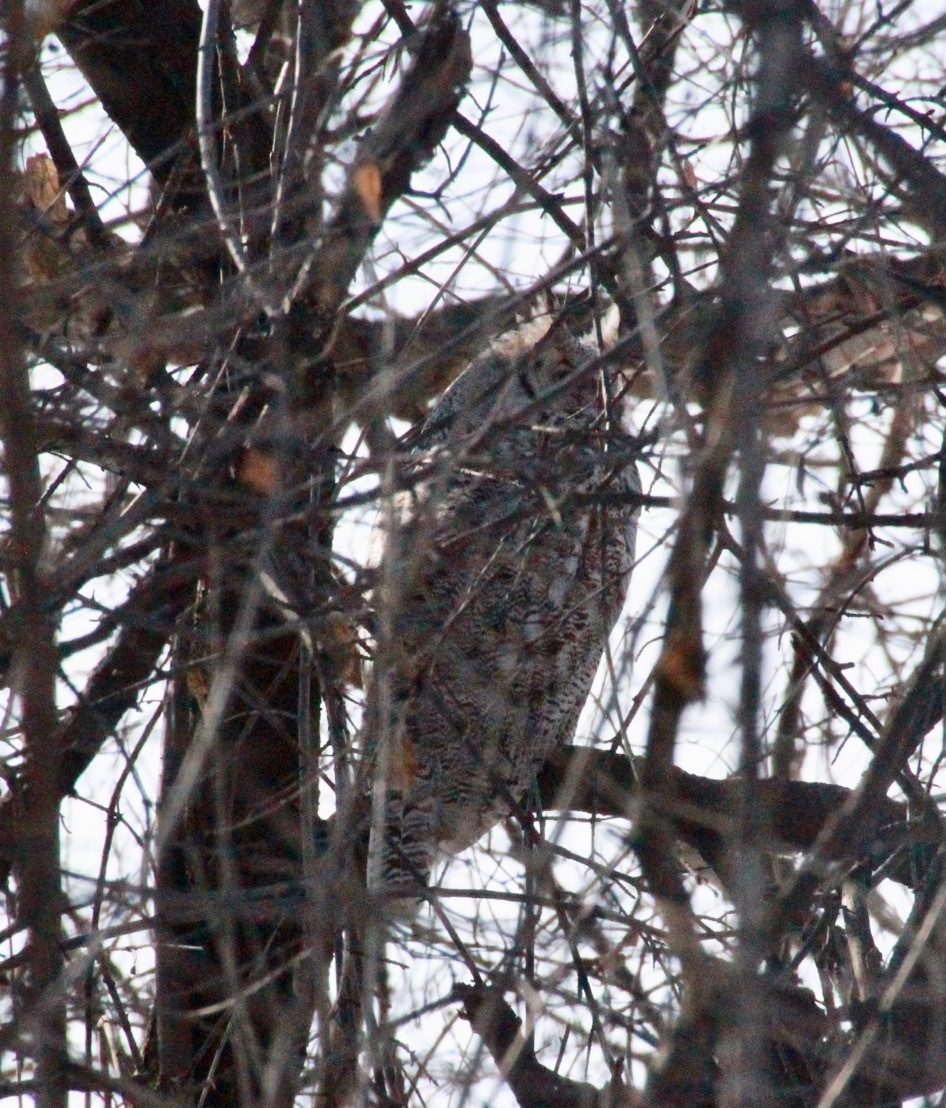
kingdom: Animalia
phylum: Chordata
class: Aves
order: Strigiformes
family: Strigidae
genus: Bubo
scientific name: Bubo virginianus
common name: Great horned owl
